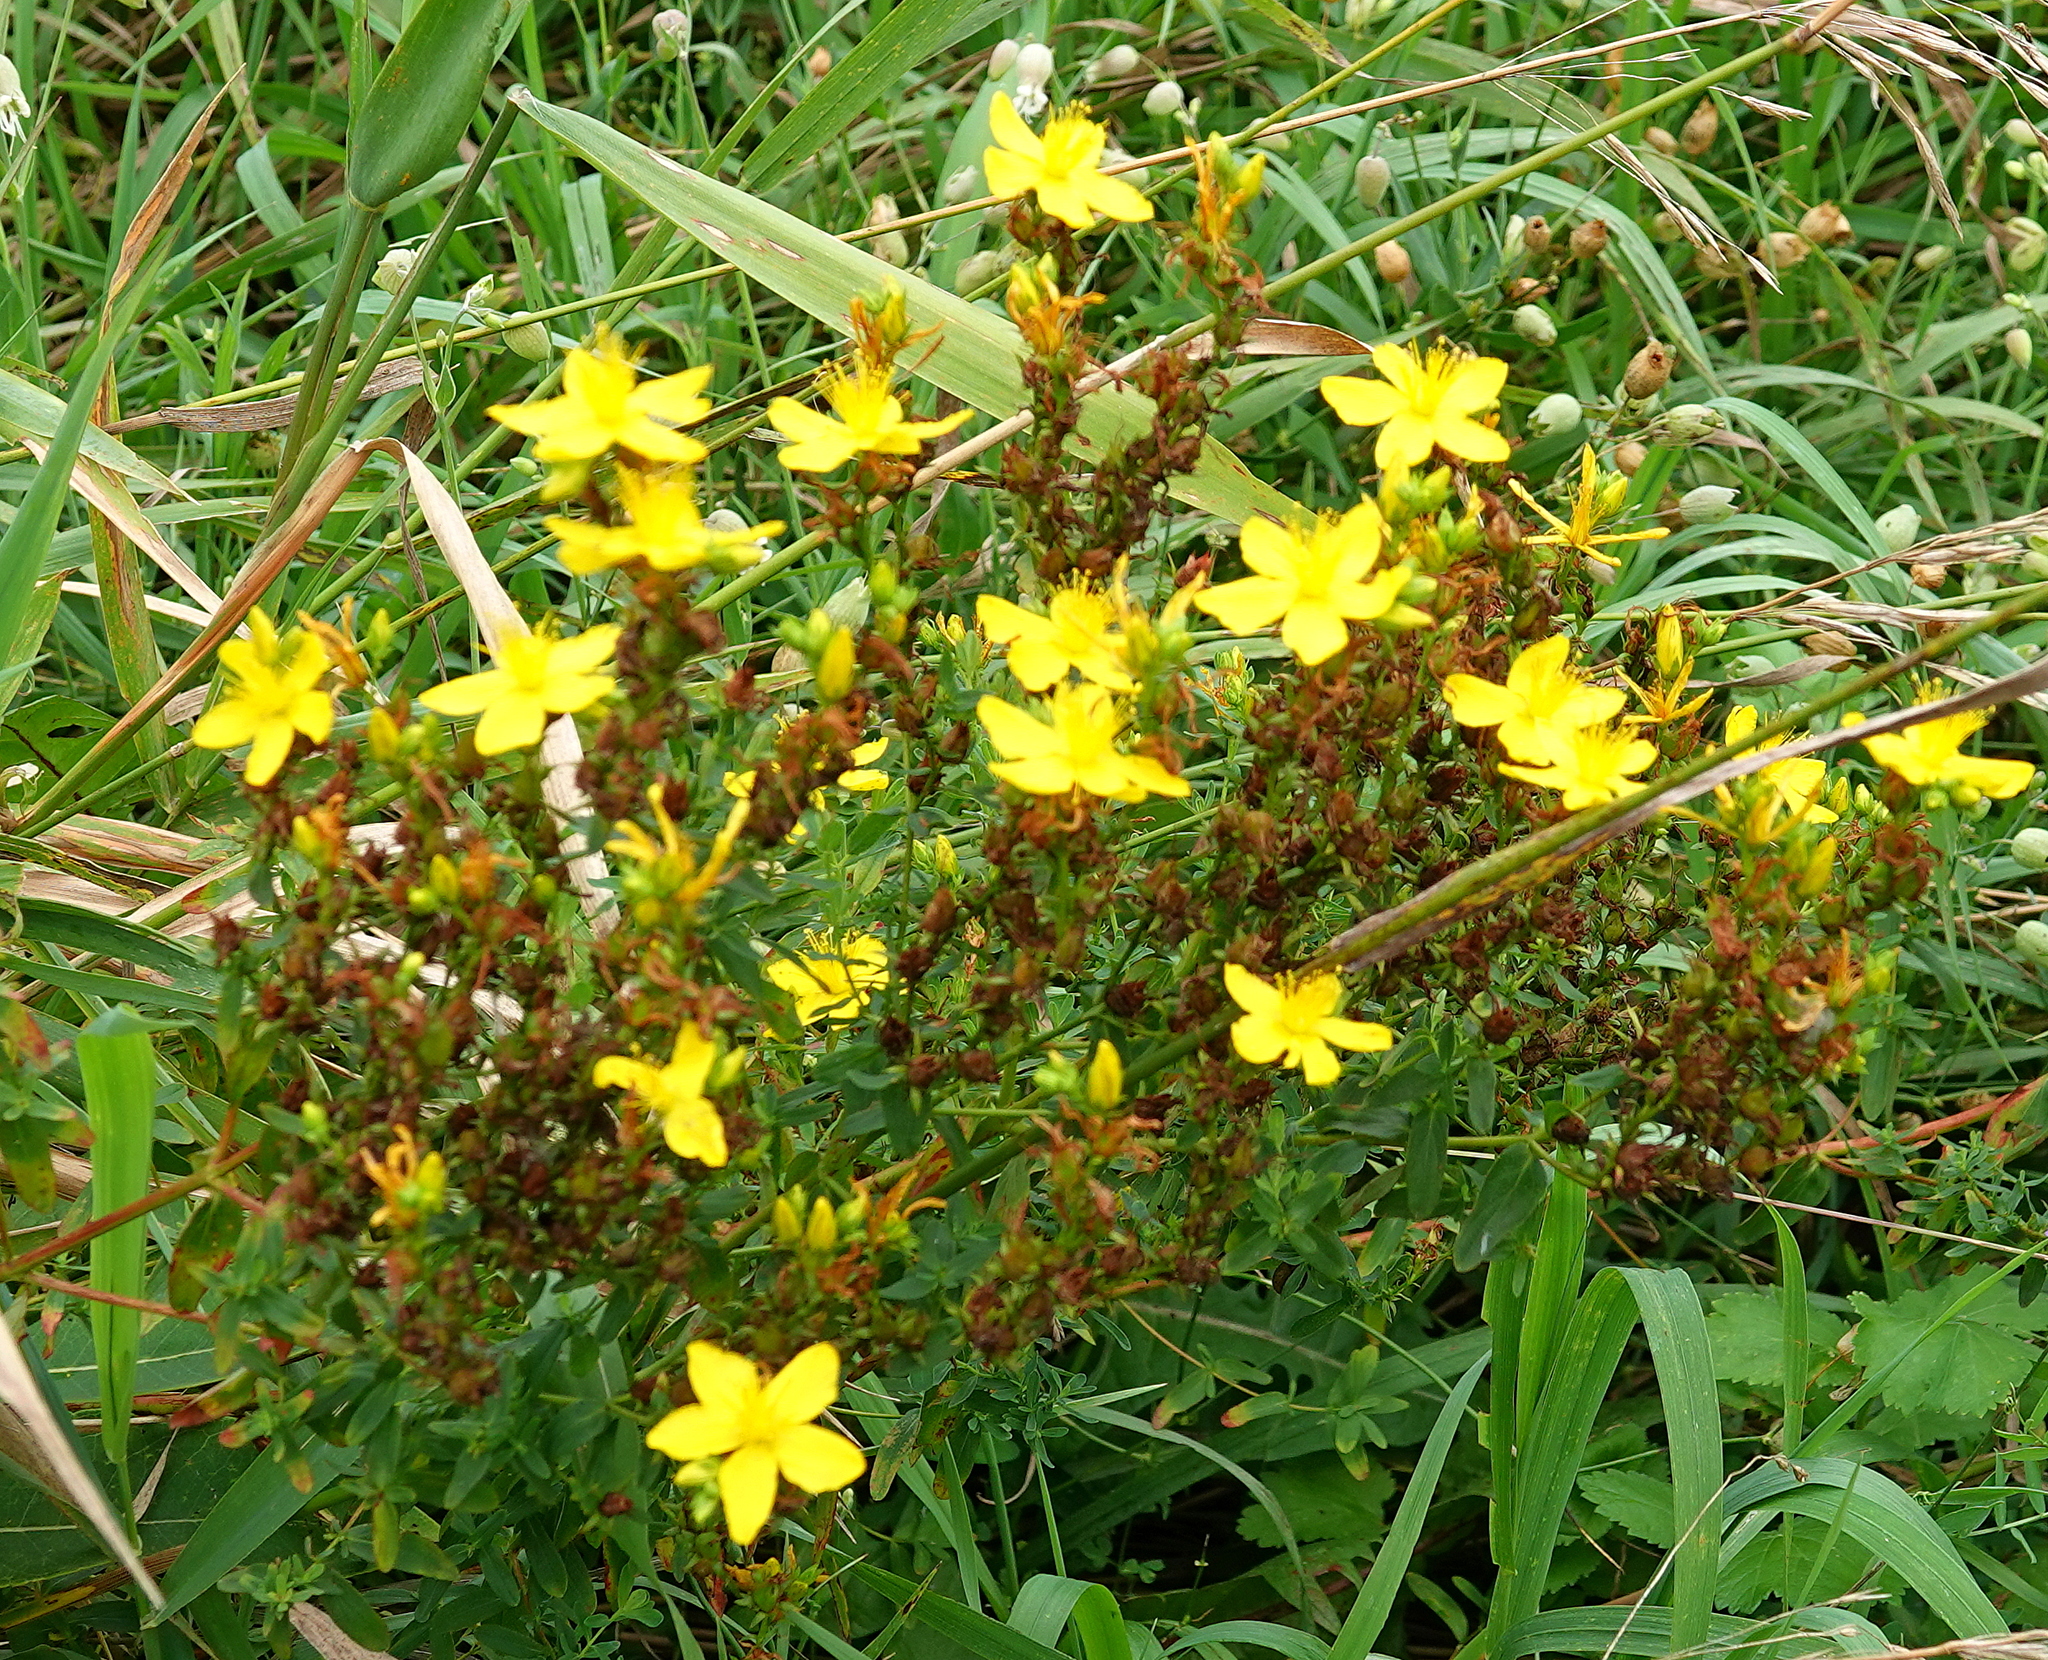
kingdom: Plantae
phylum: Tracheophyta
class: Magnoliopsida
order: Malpighiales
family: Hypericaceae
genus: Hypericum
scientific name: Hypericum perforatum
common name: Common st. johnswort
